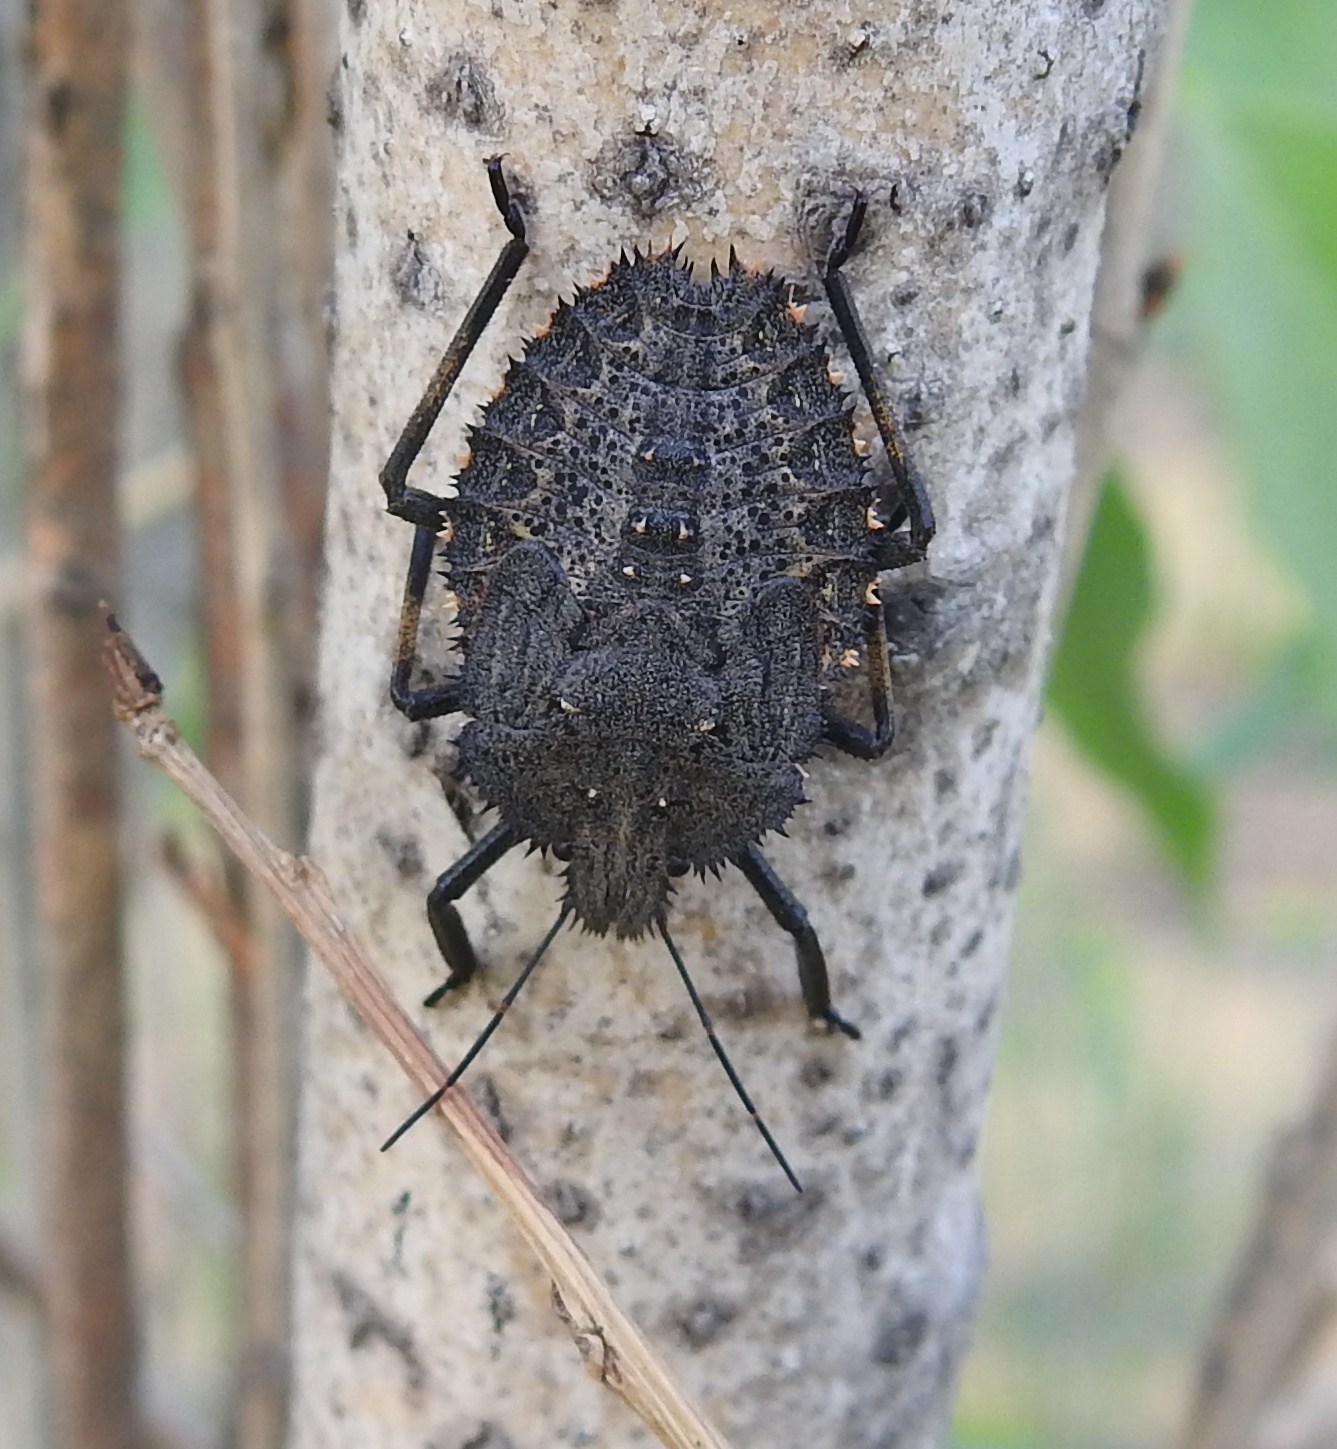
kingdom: Animalia
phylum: Arthropoda
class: Insecta
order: Hemiptera
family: Pentatomidae
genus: Mustha
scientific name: Mustha spinosula
